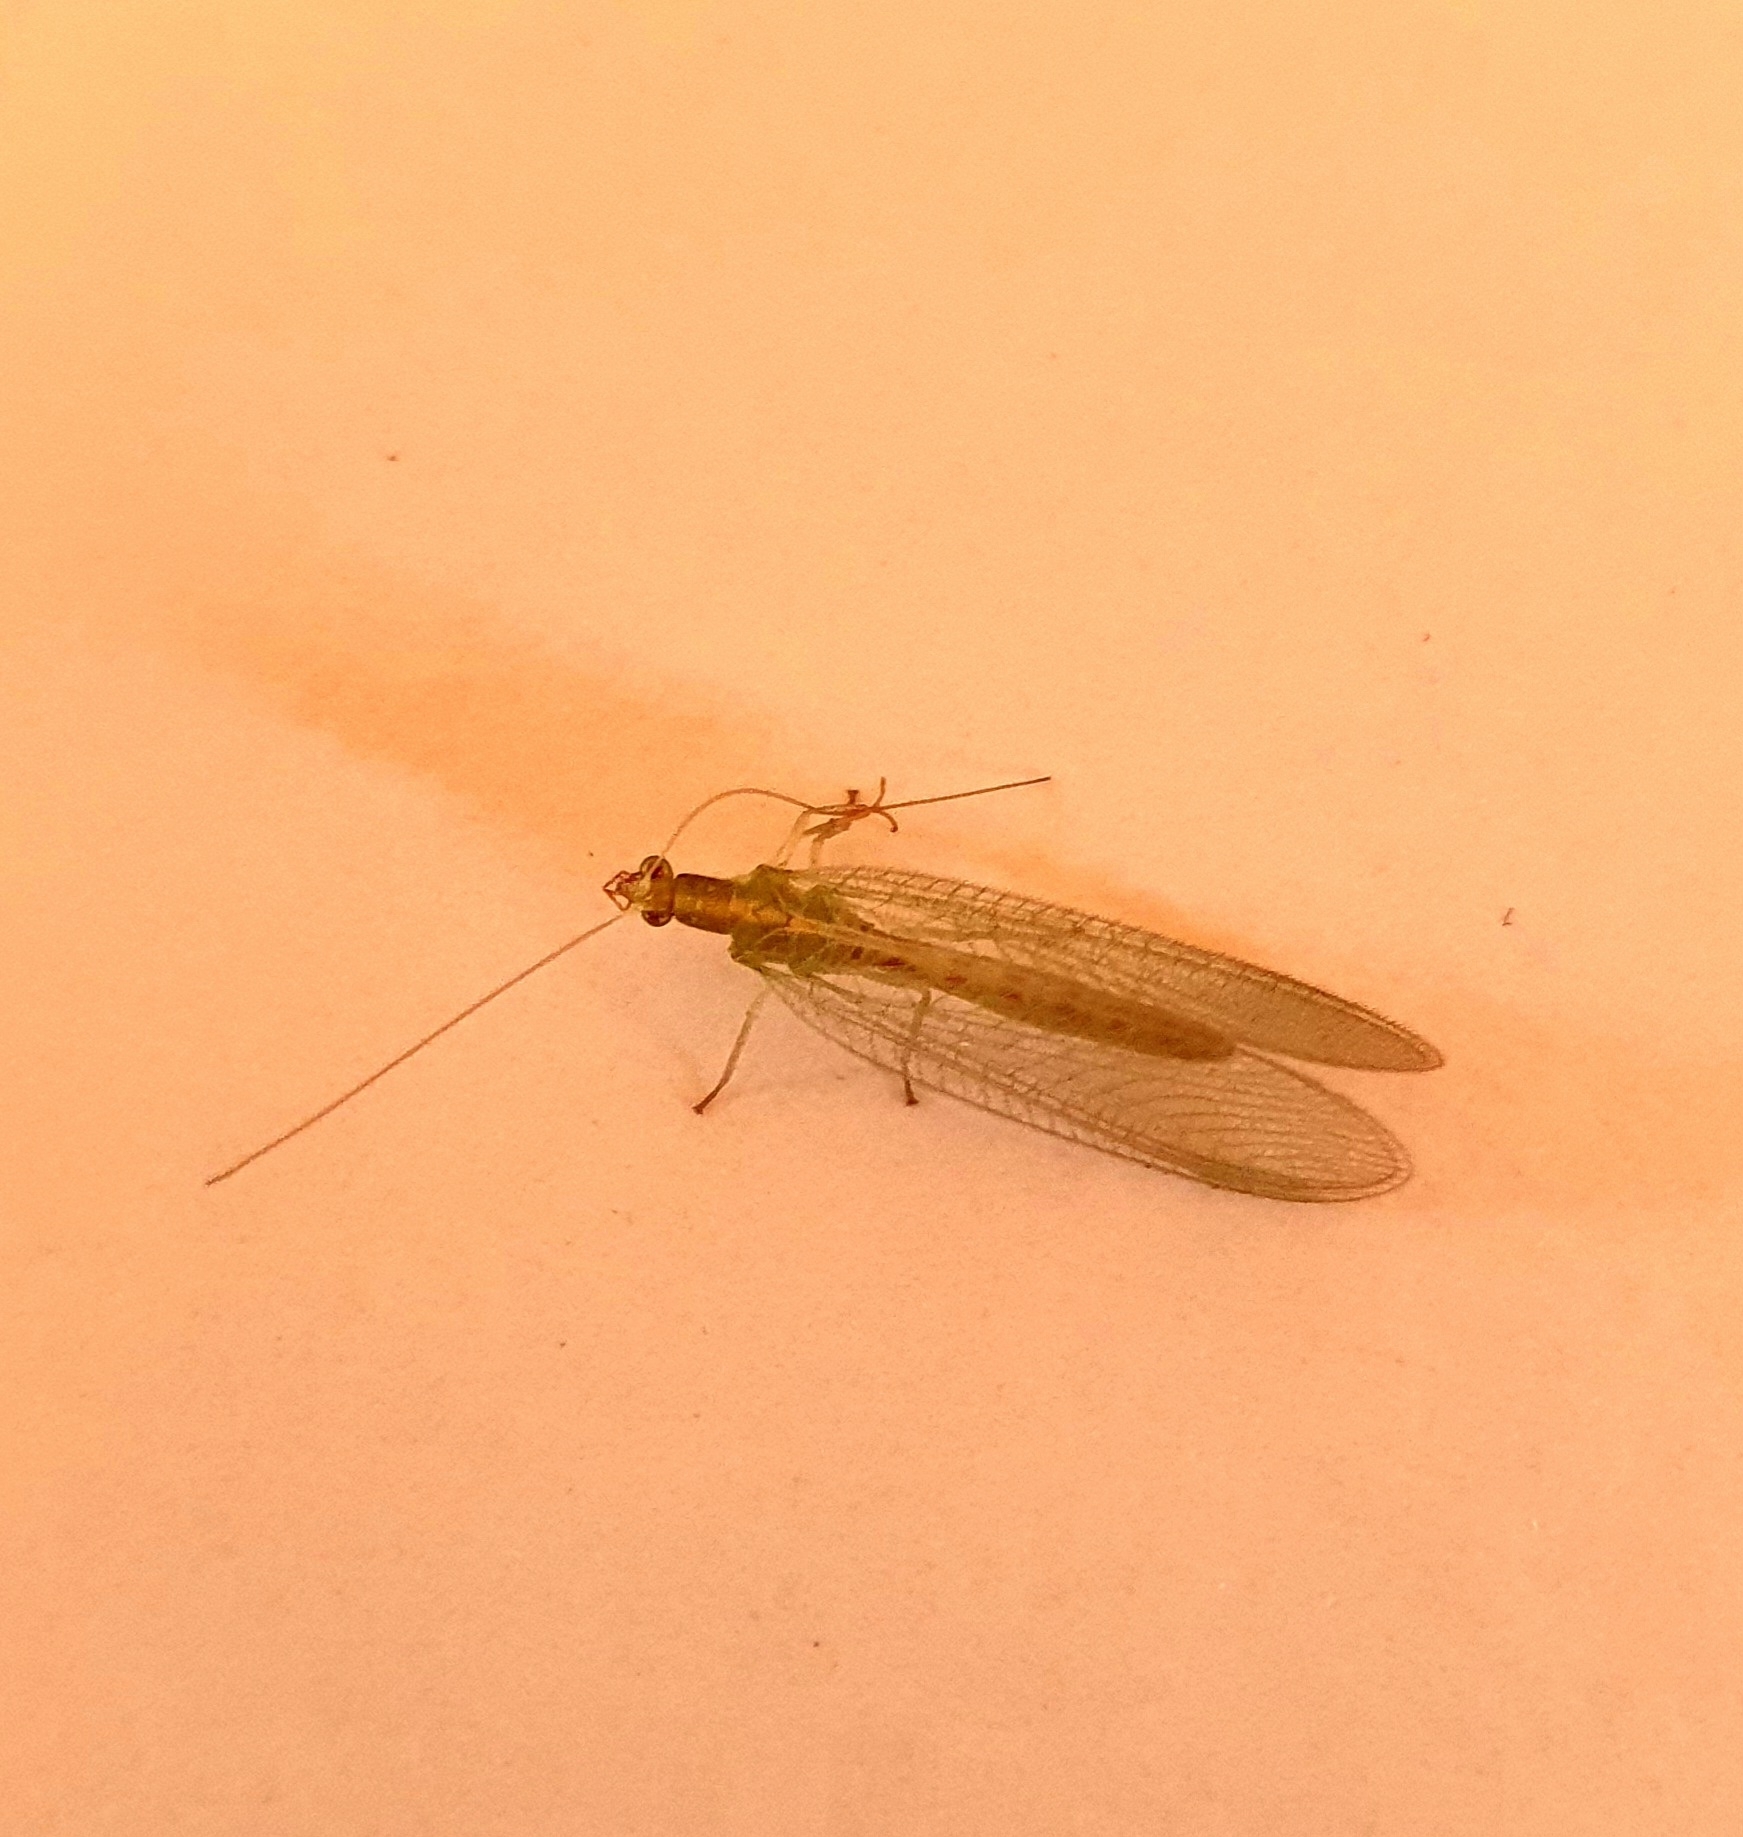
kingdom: Animalia
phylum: Arthropoda
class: Insecta
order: Neuroptera
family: Chrysopidae
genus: Chrysoperla
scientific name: Chrysoperla
